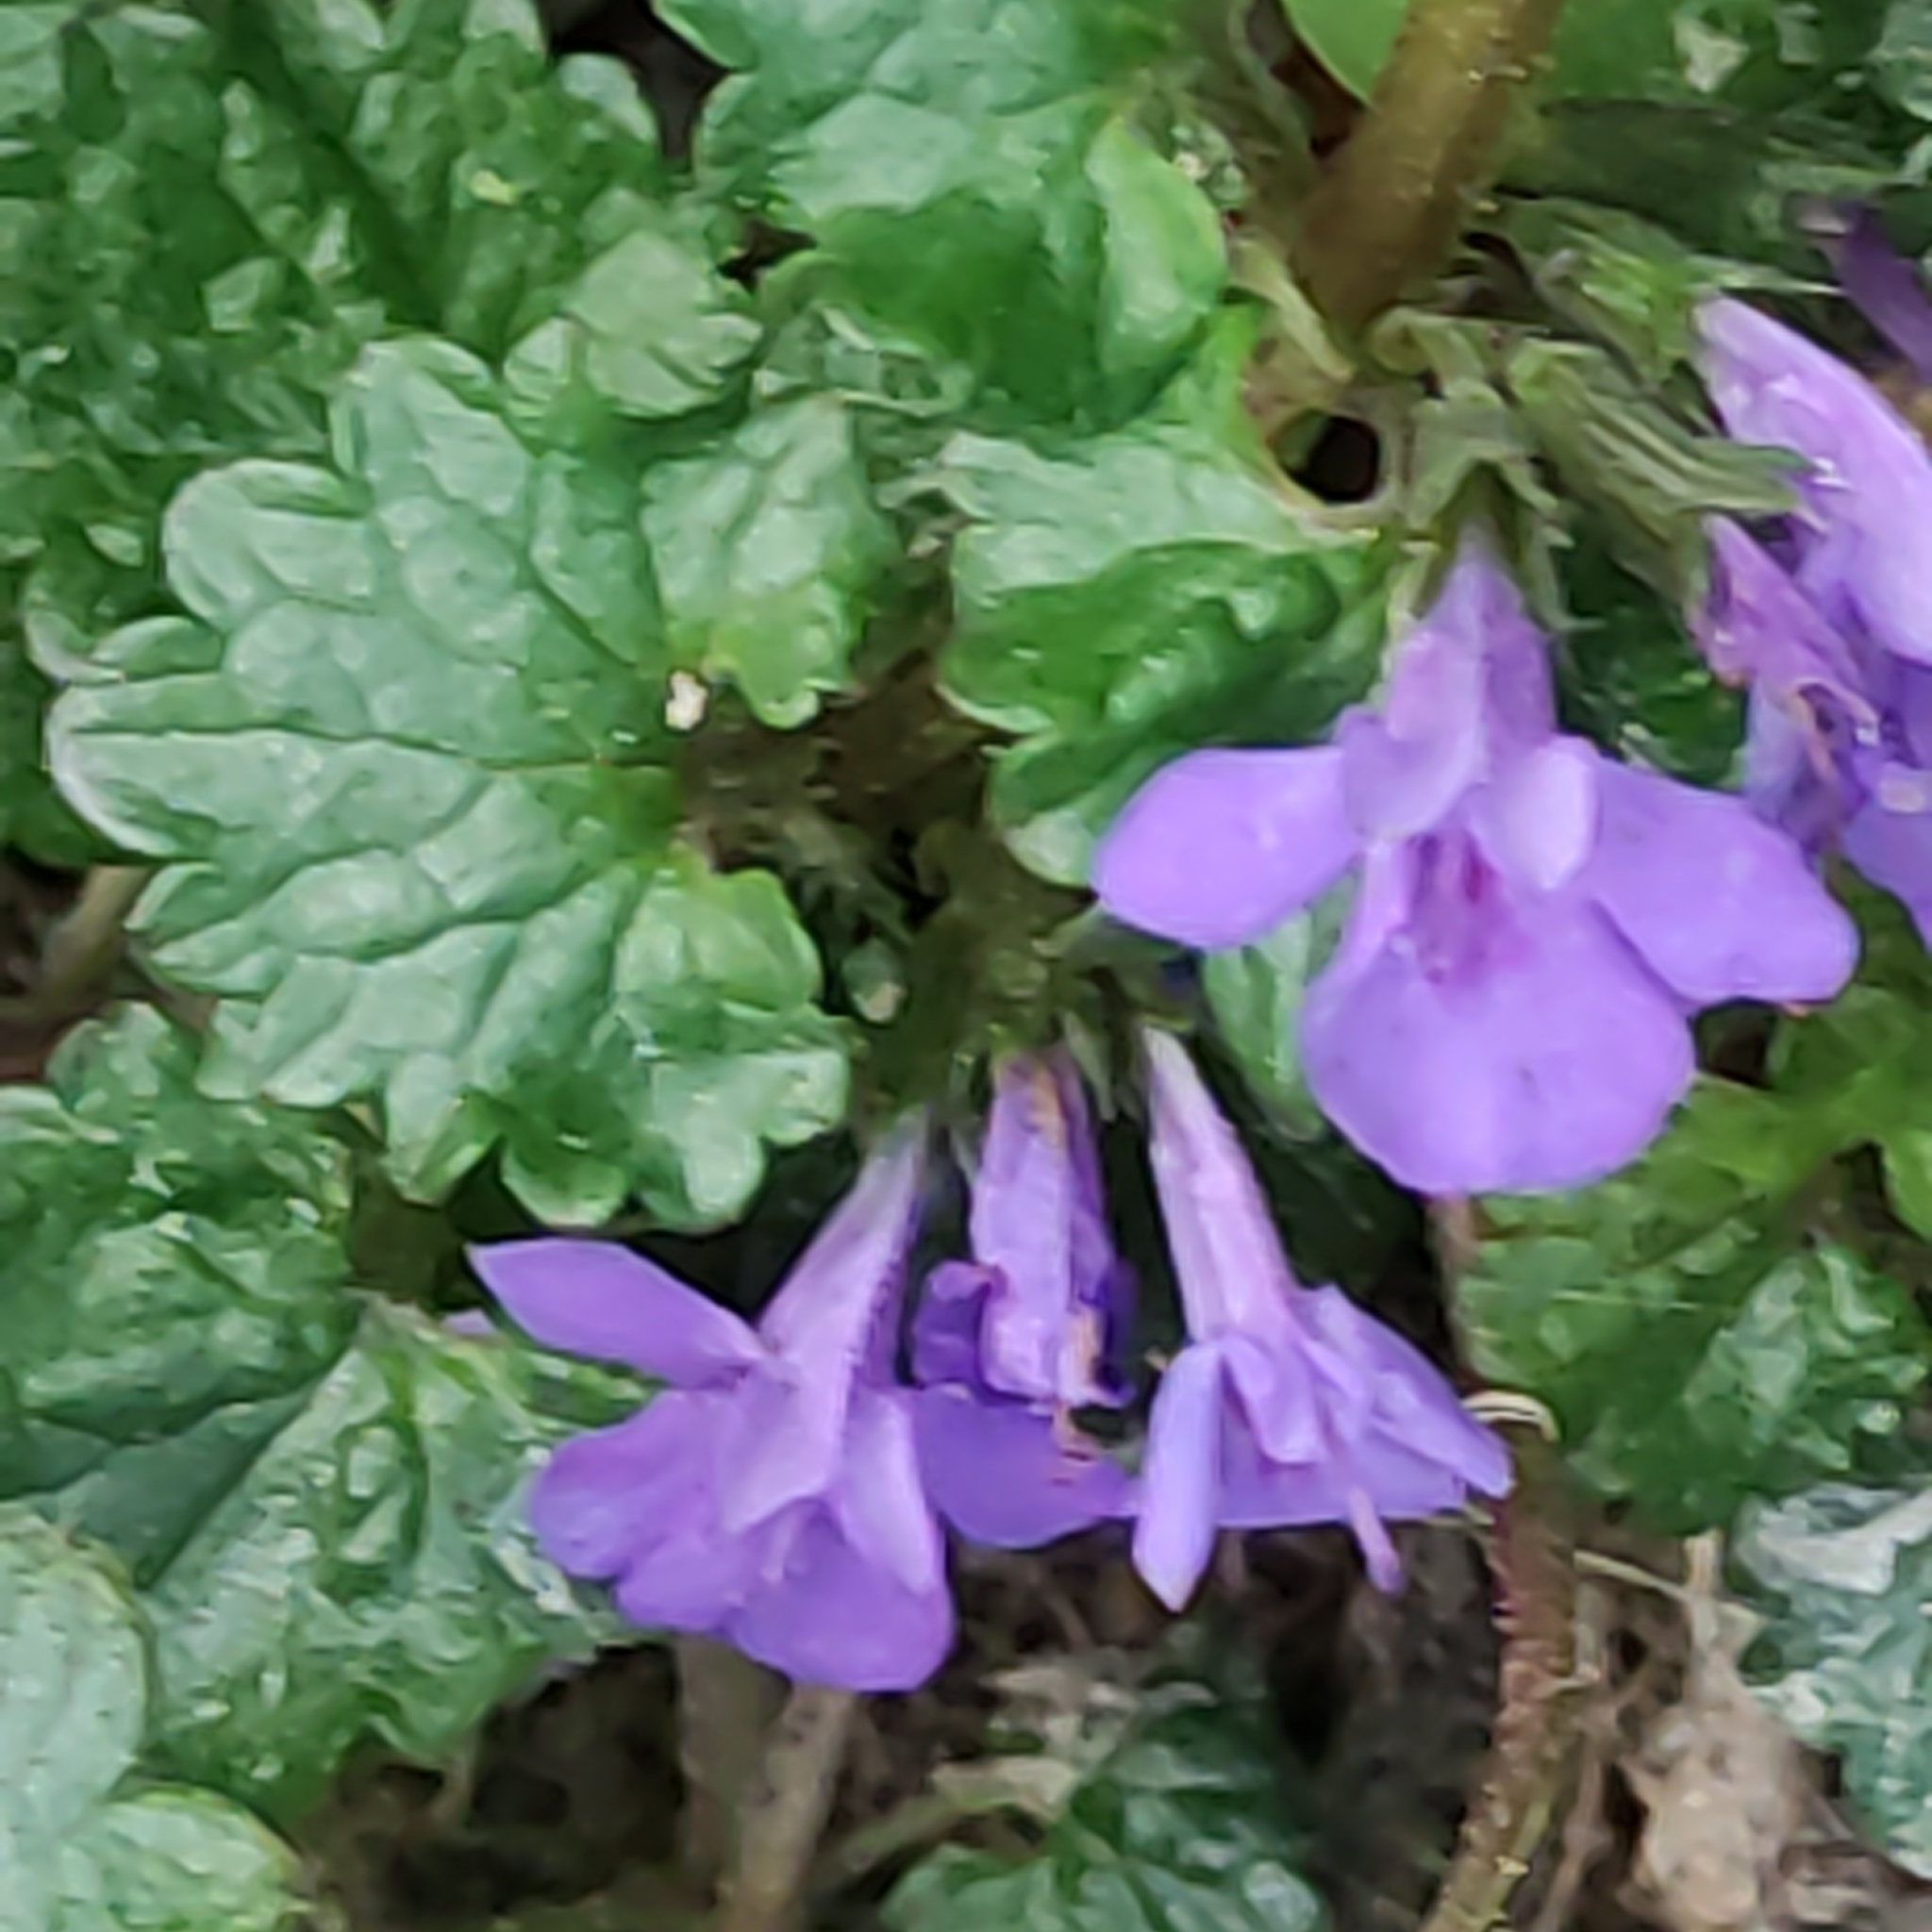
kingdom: Plantae
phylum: Tracheophyta
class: Magnoliopsida
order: Lamiales
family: Lamiaceae
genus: Glechoma
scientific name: Glechoma hederacea
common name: Ground ivy
